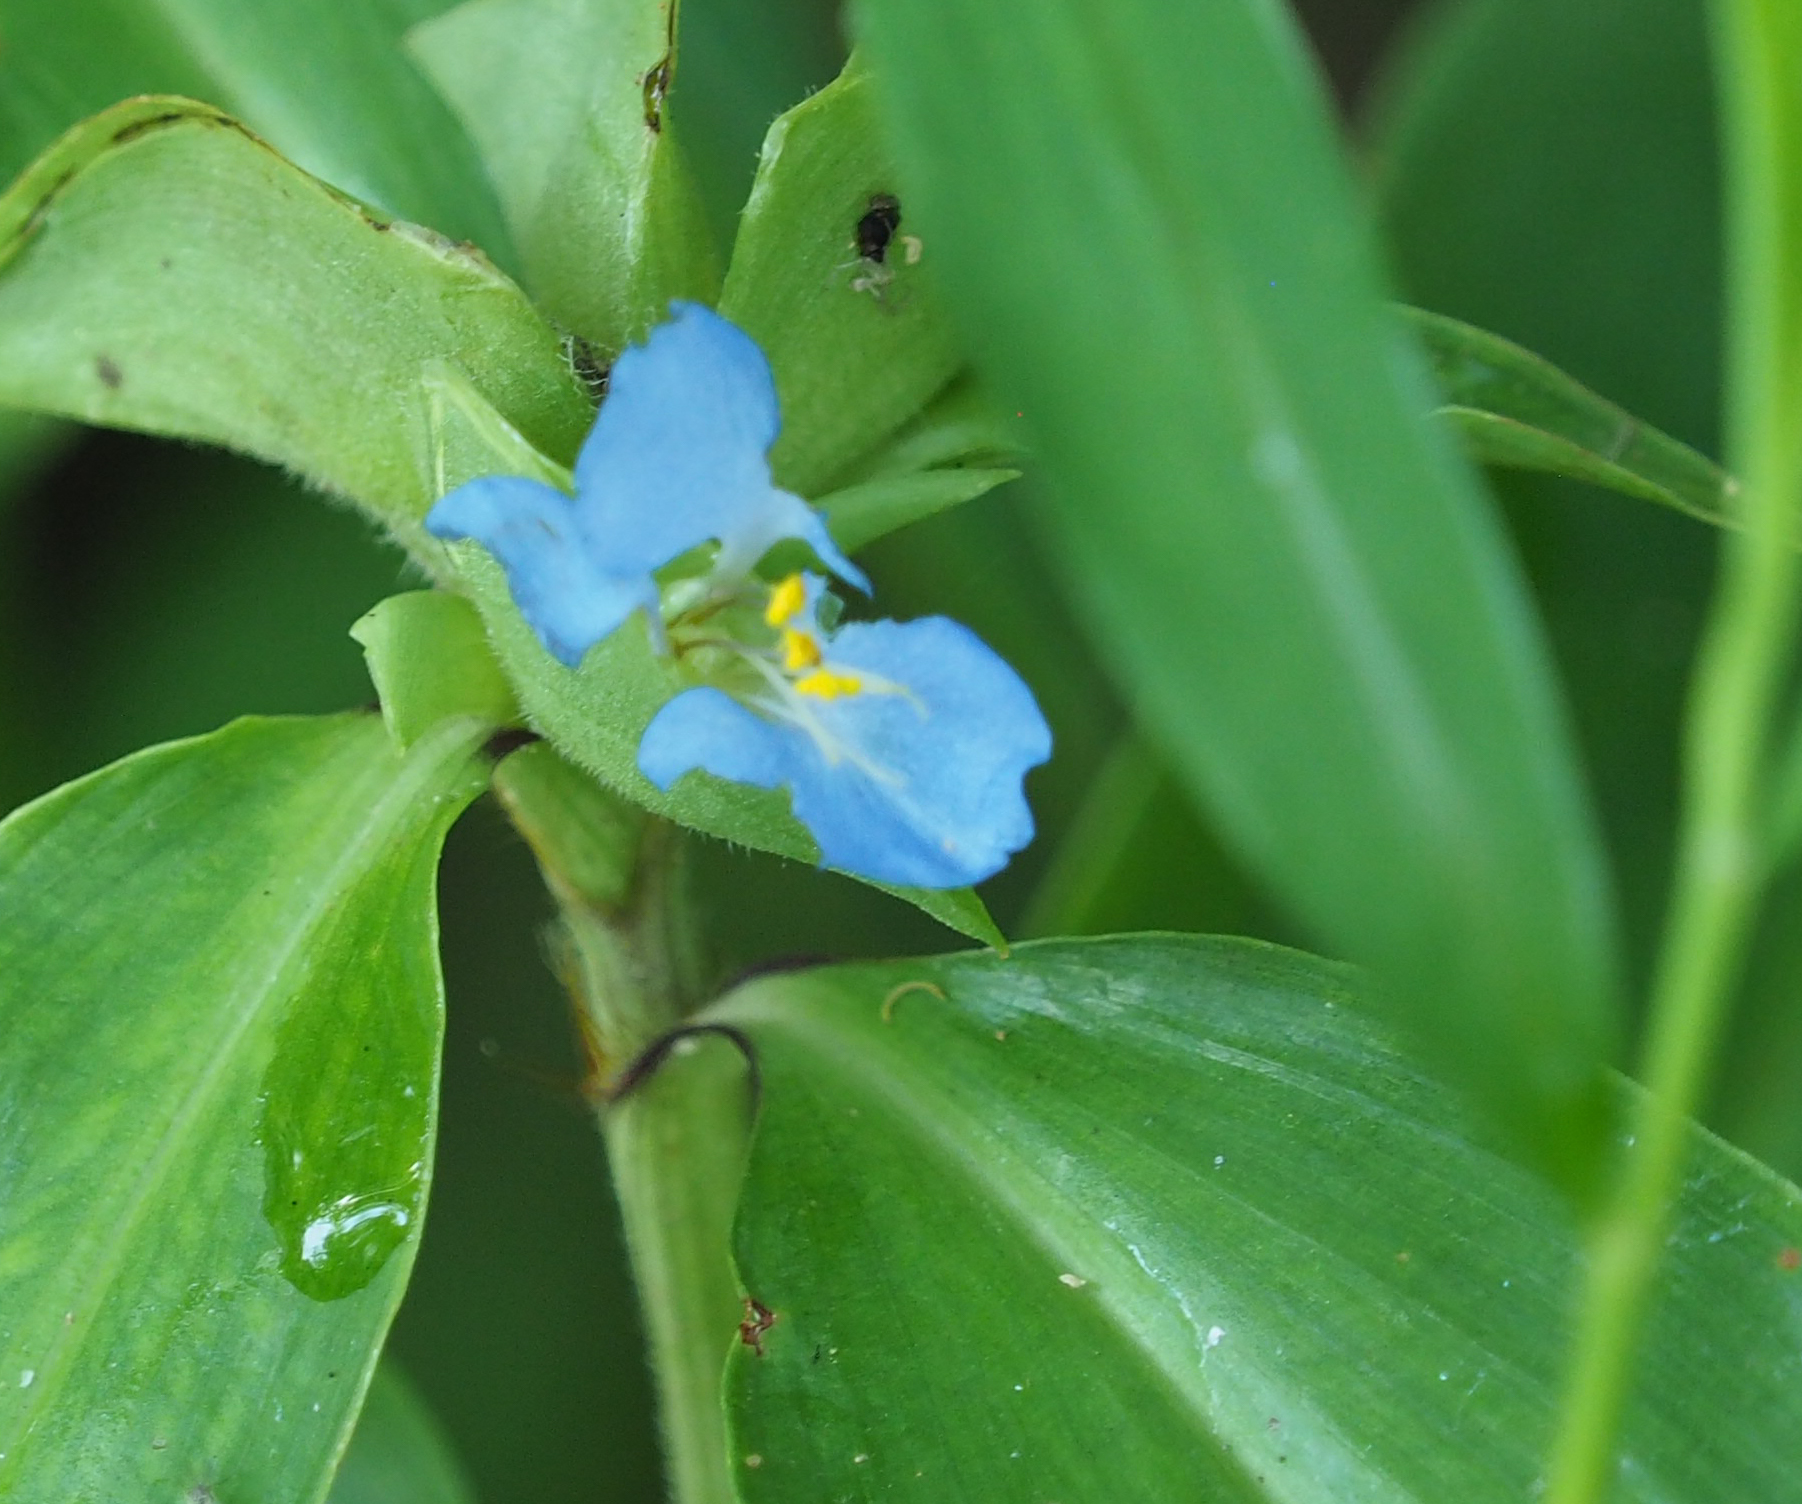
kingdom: Plantae
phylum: Tracheophyta
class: Liliopsida
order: Commelinales
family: Commelinaceae
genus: Commelina
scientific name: Commelina virginica
